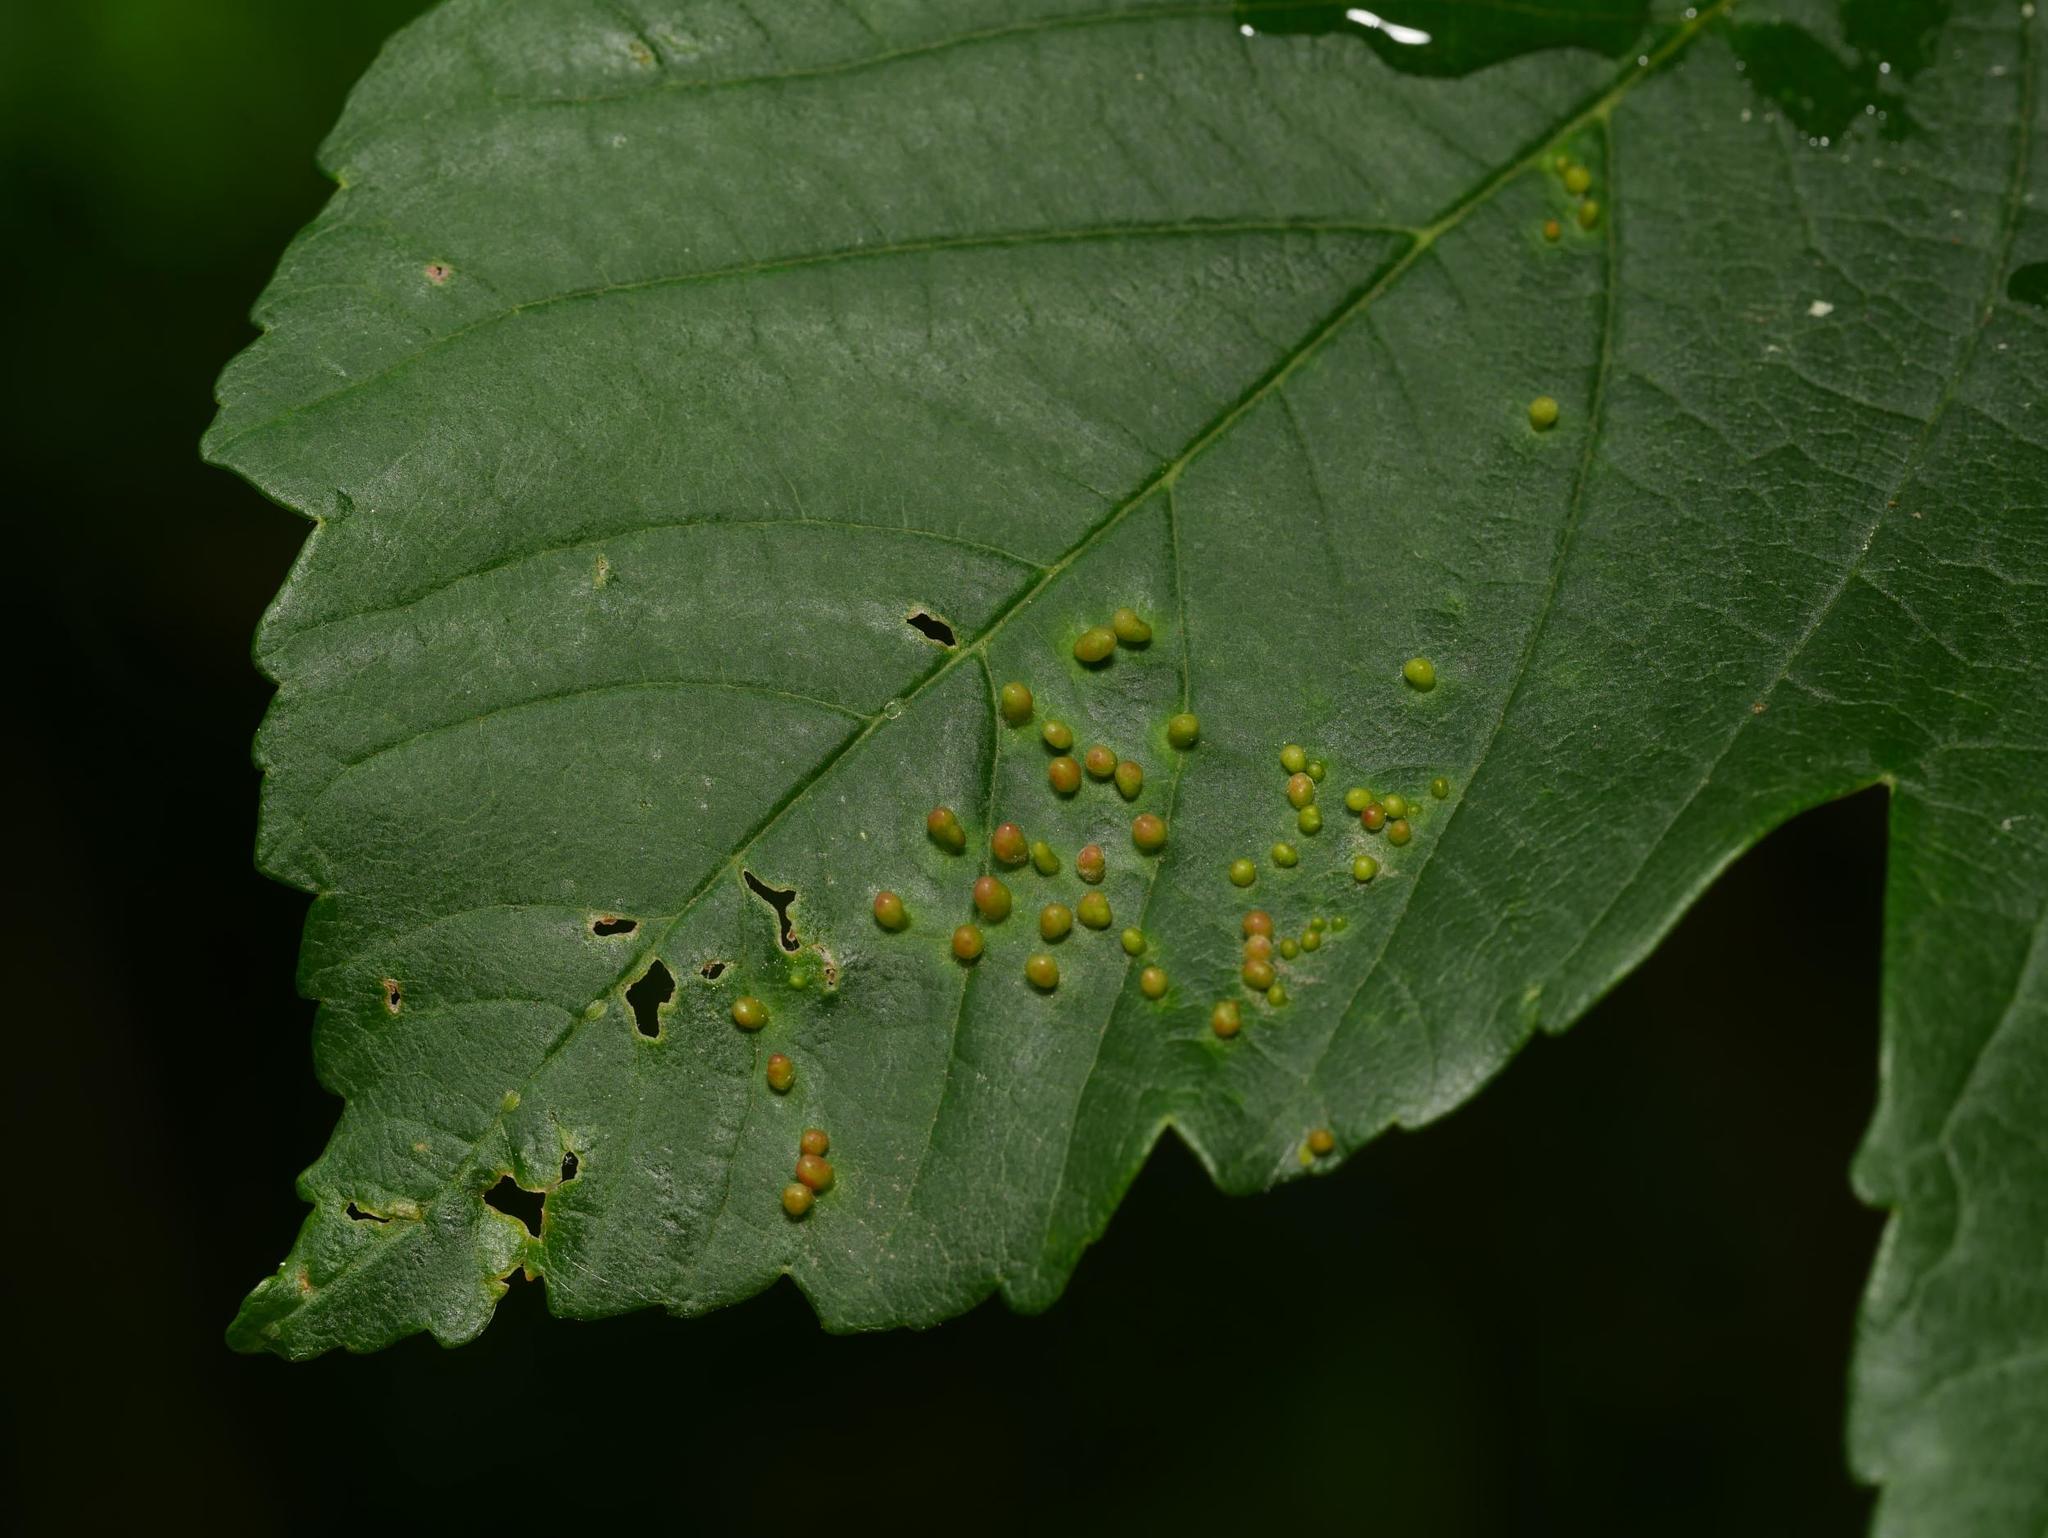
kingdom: Animalia
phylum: Arthropoda
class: Arachnida
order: Trombidiformes
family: Eriophyidae
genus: Aceria
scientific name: Aceria cephaloneus
